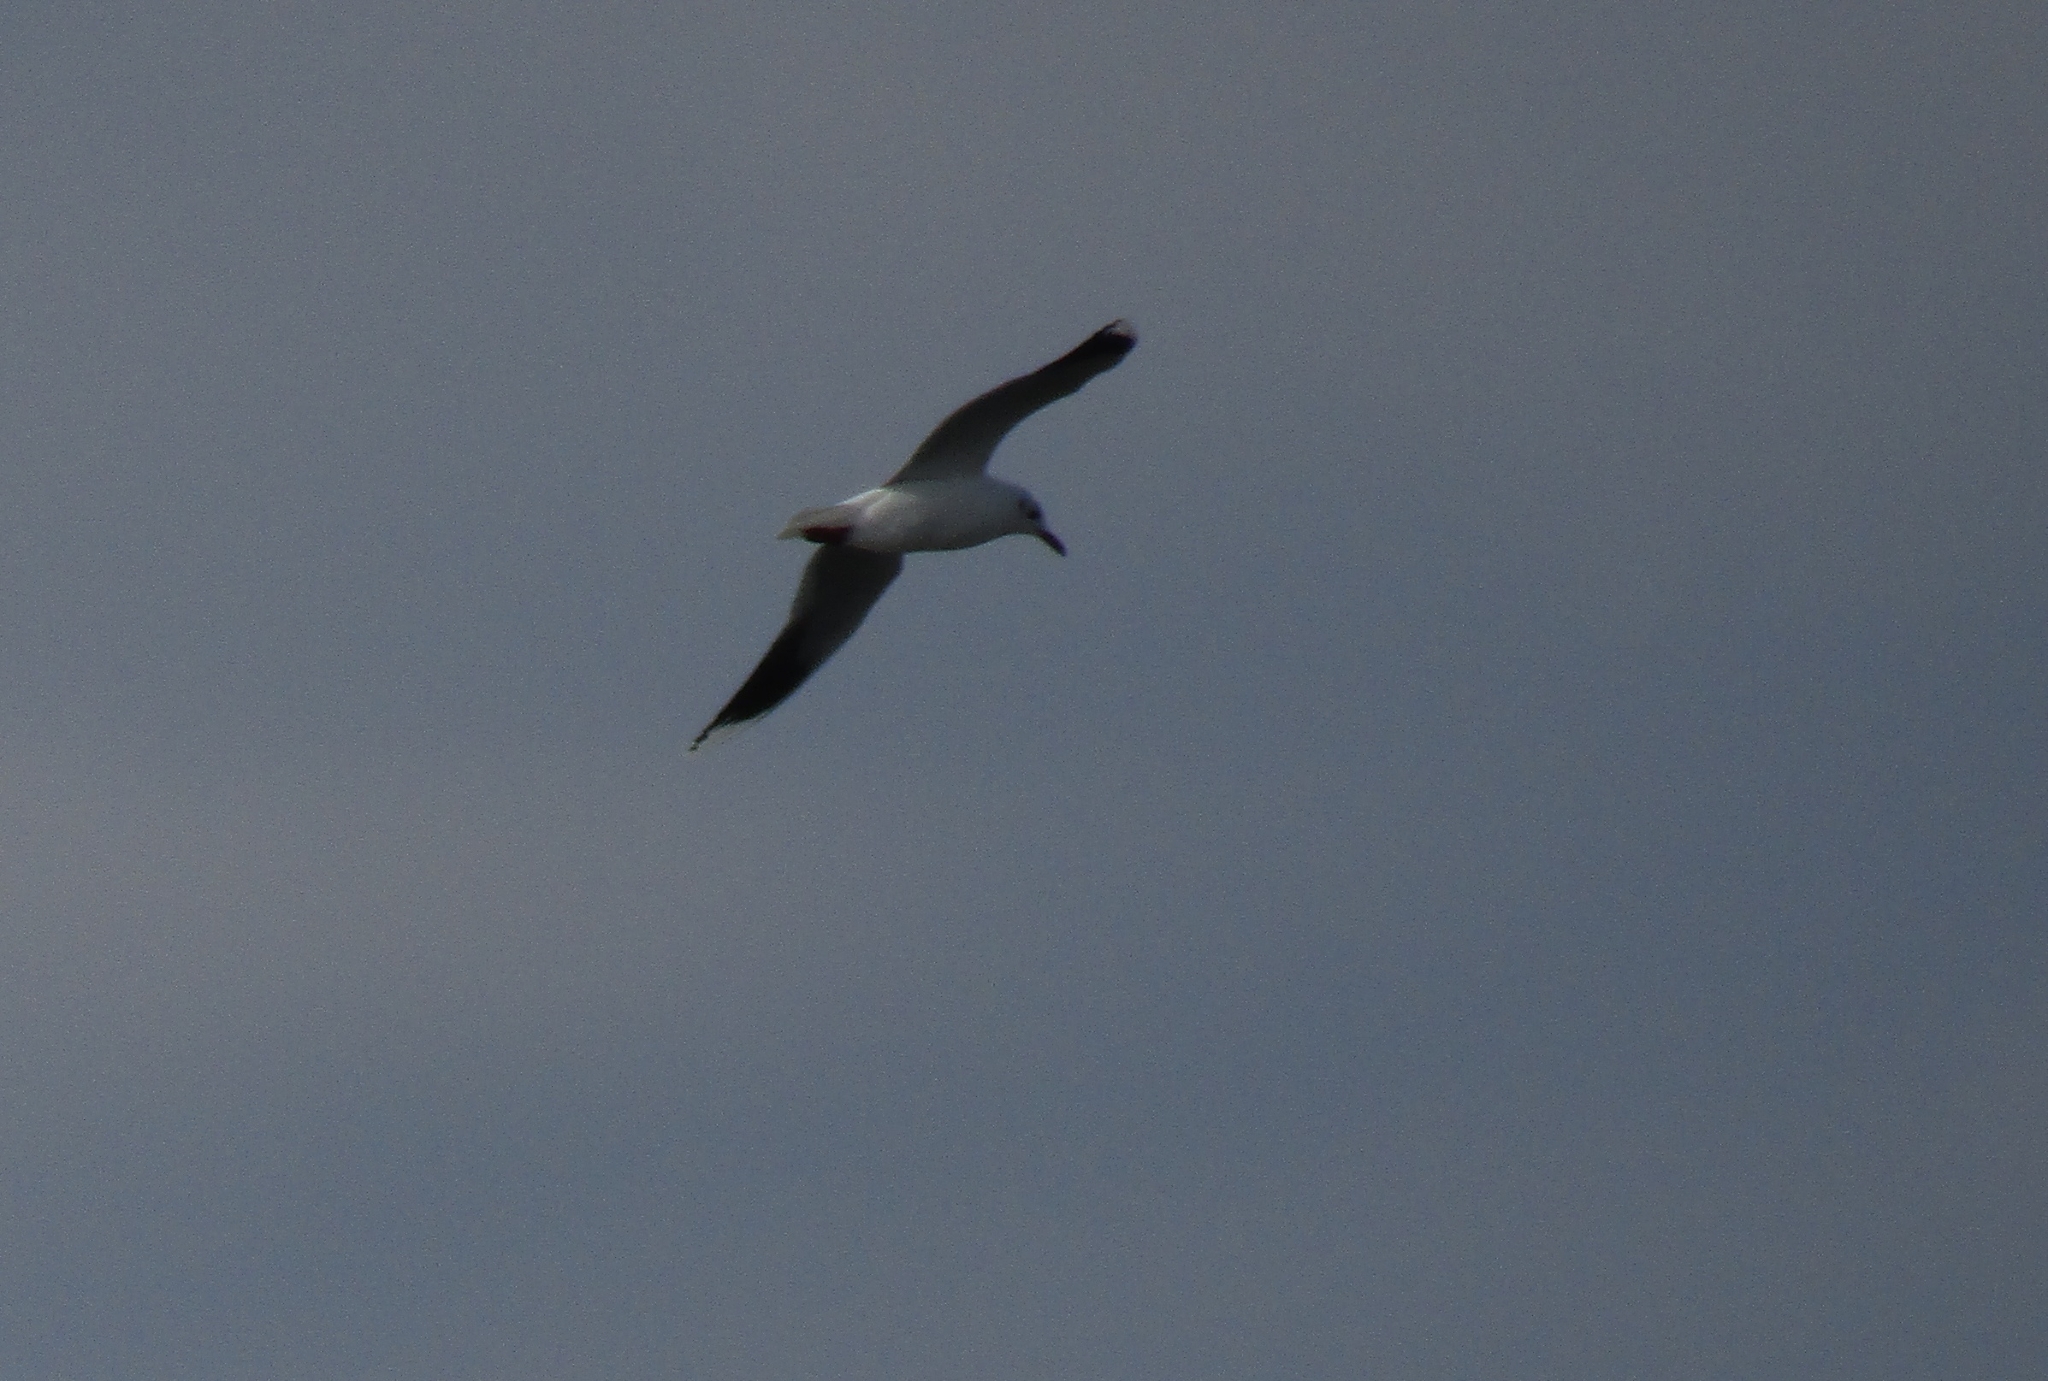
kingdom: Animalia
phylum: Chordata
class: Aves
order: Charadriiformes
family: Laridae
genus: Chroicocephalus
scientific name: Chroicocephalus maculipennis
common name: Brown-hooded gull
